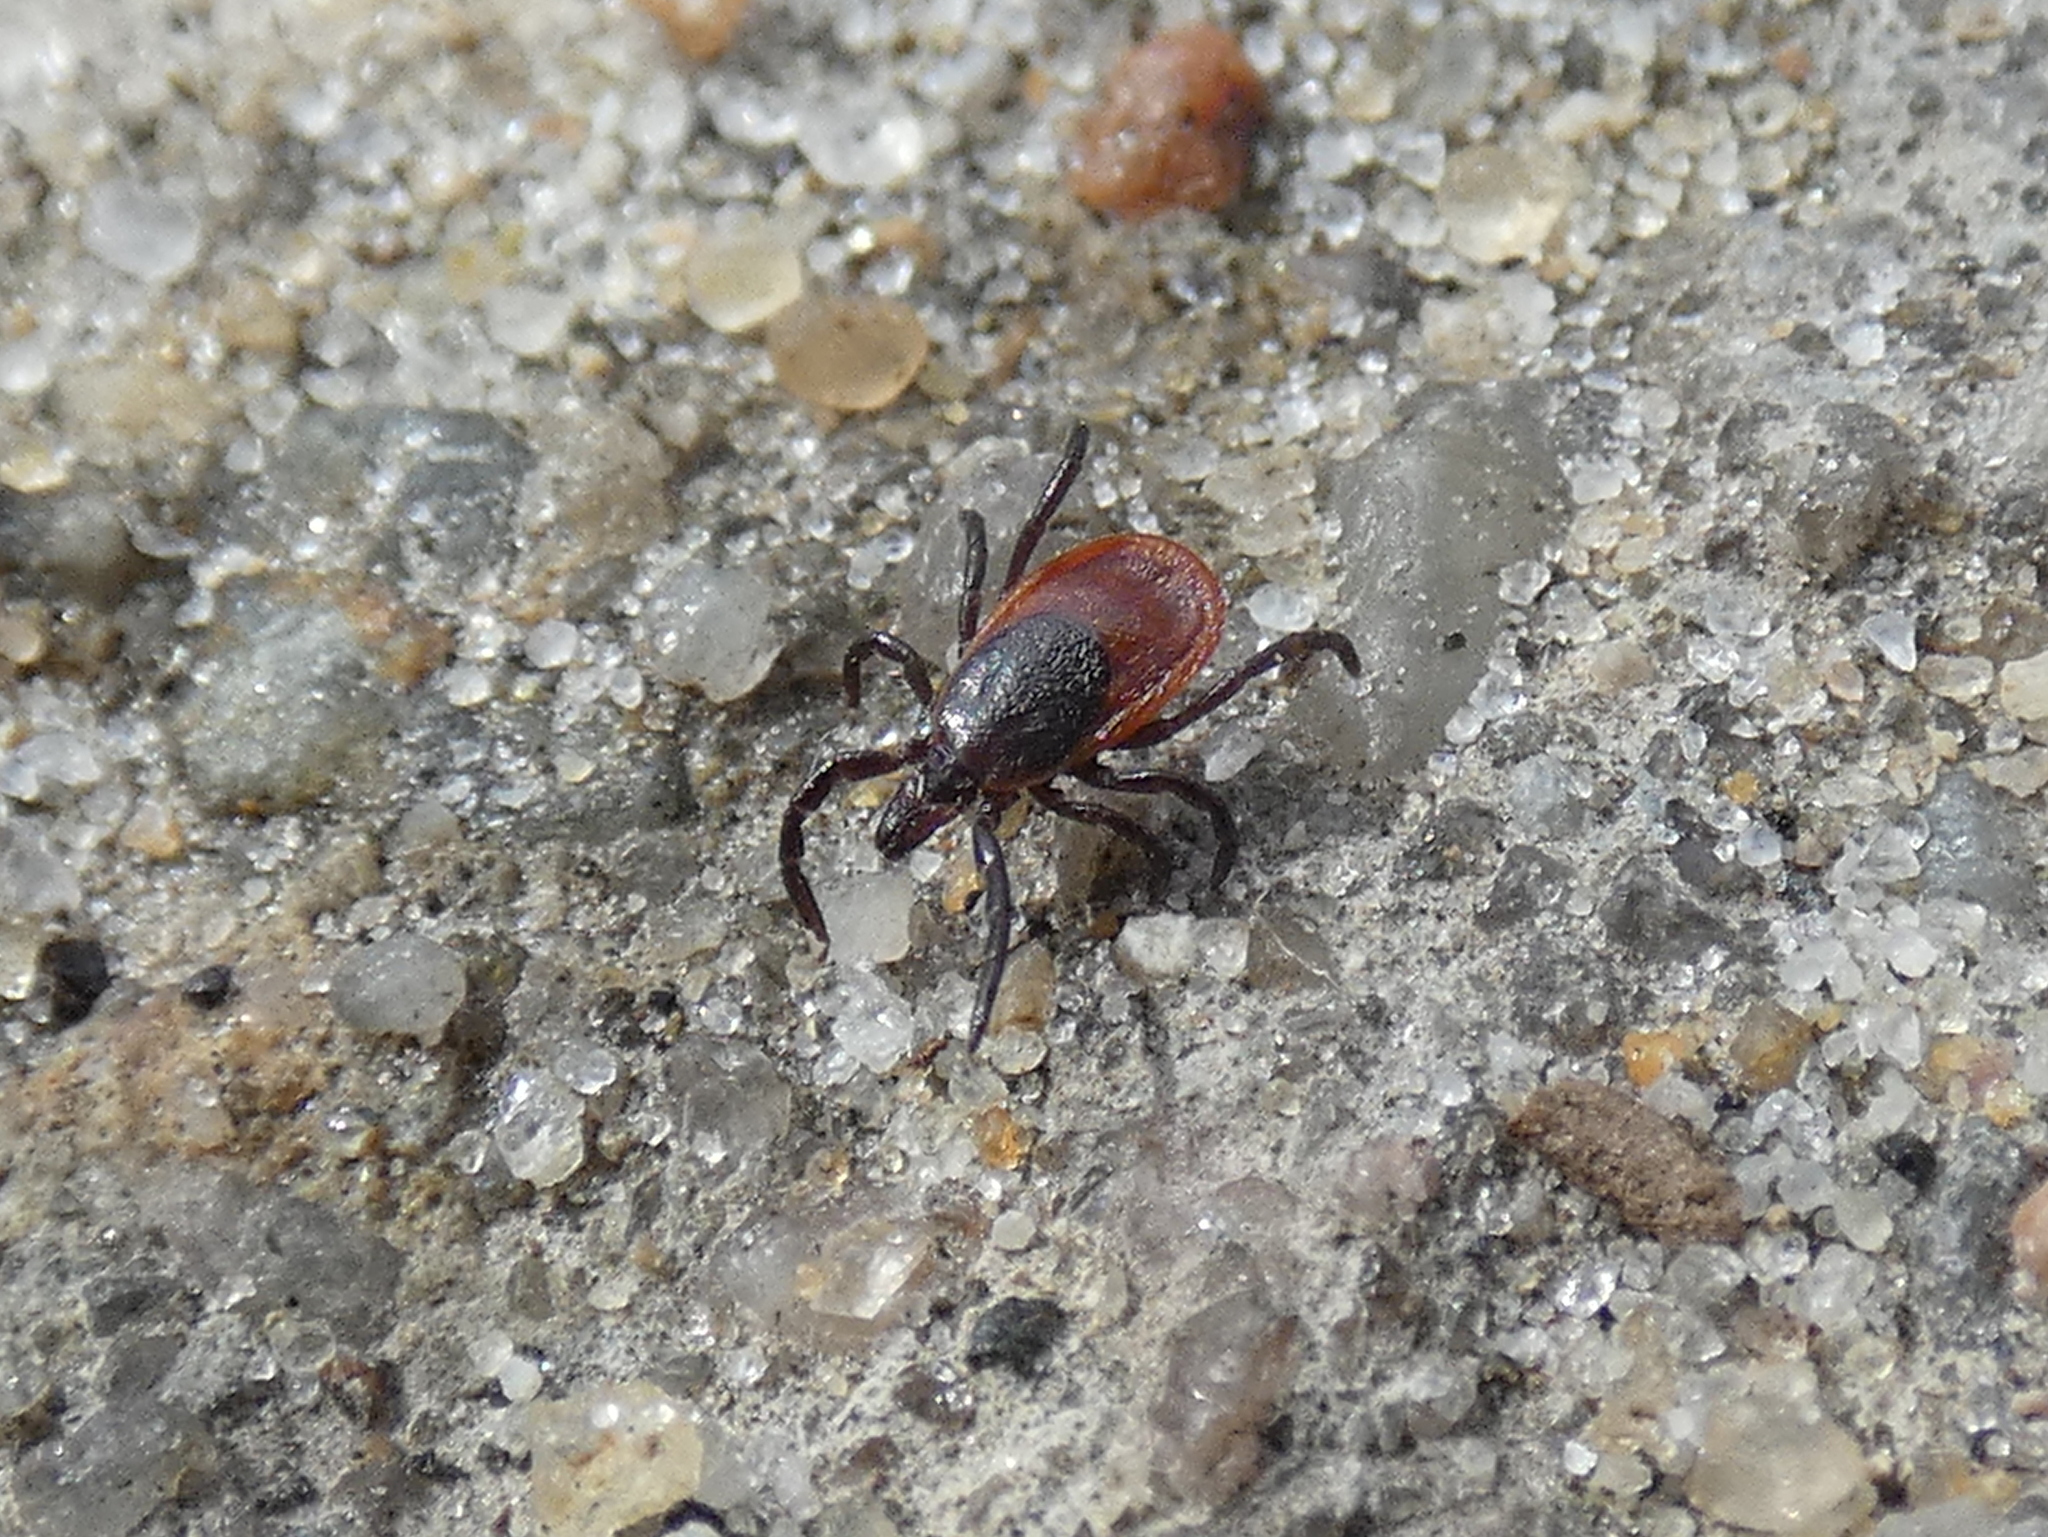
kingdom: Animalia
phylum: Arthropoda
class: Arachnida
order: Ixodida
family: Ixodidae
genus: Ixodes
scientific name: Ixodes scapularis
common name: Black legged tick
